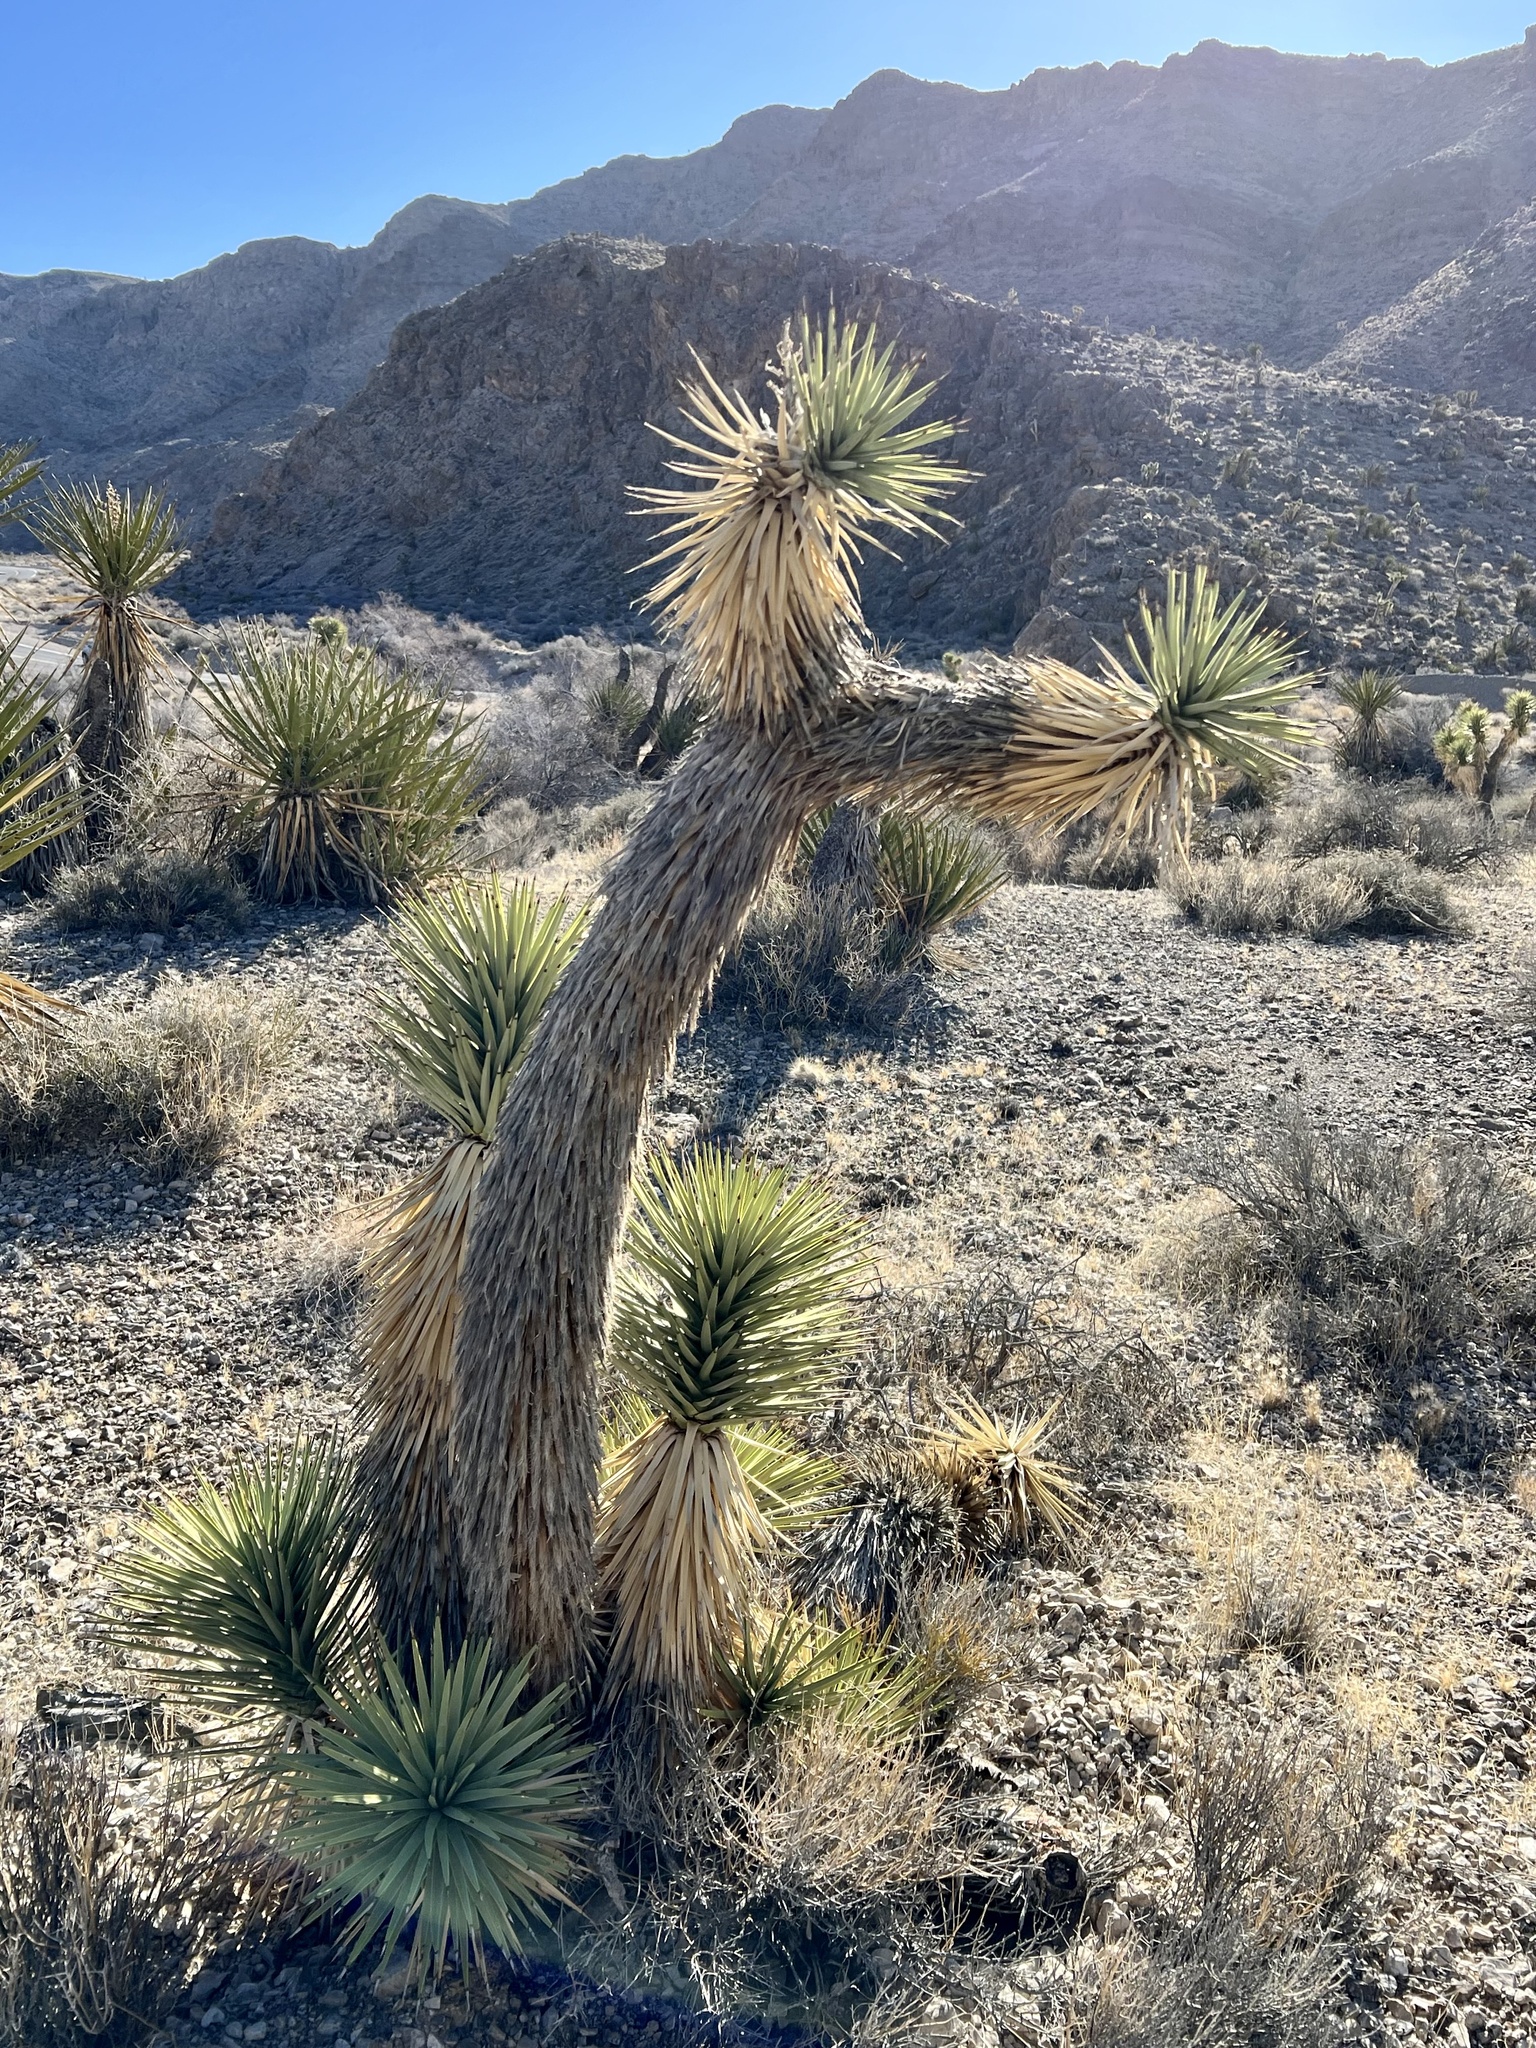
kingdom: Plantae
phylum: Tracheophyta
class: Liliopsida
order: Asparagales
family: Asparagaceae
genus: Yucca
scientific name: Yucca brevifolia
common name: Joshua tree
